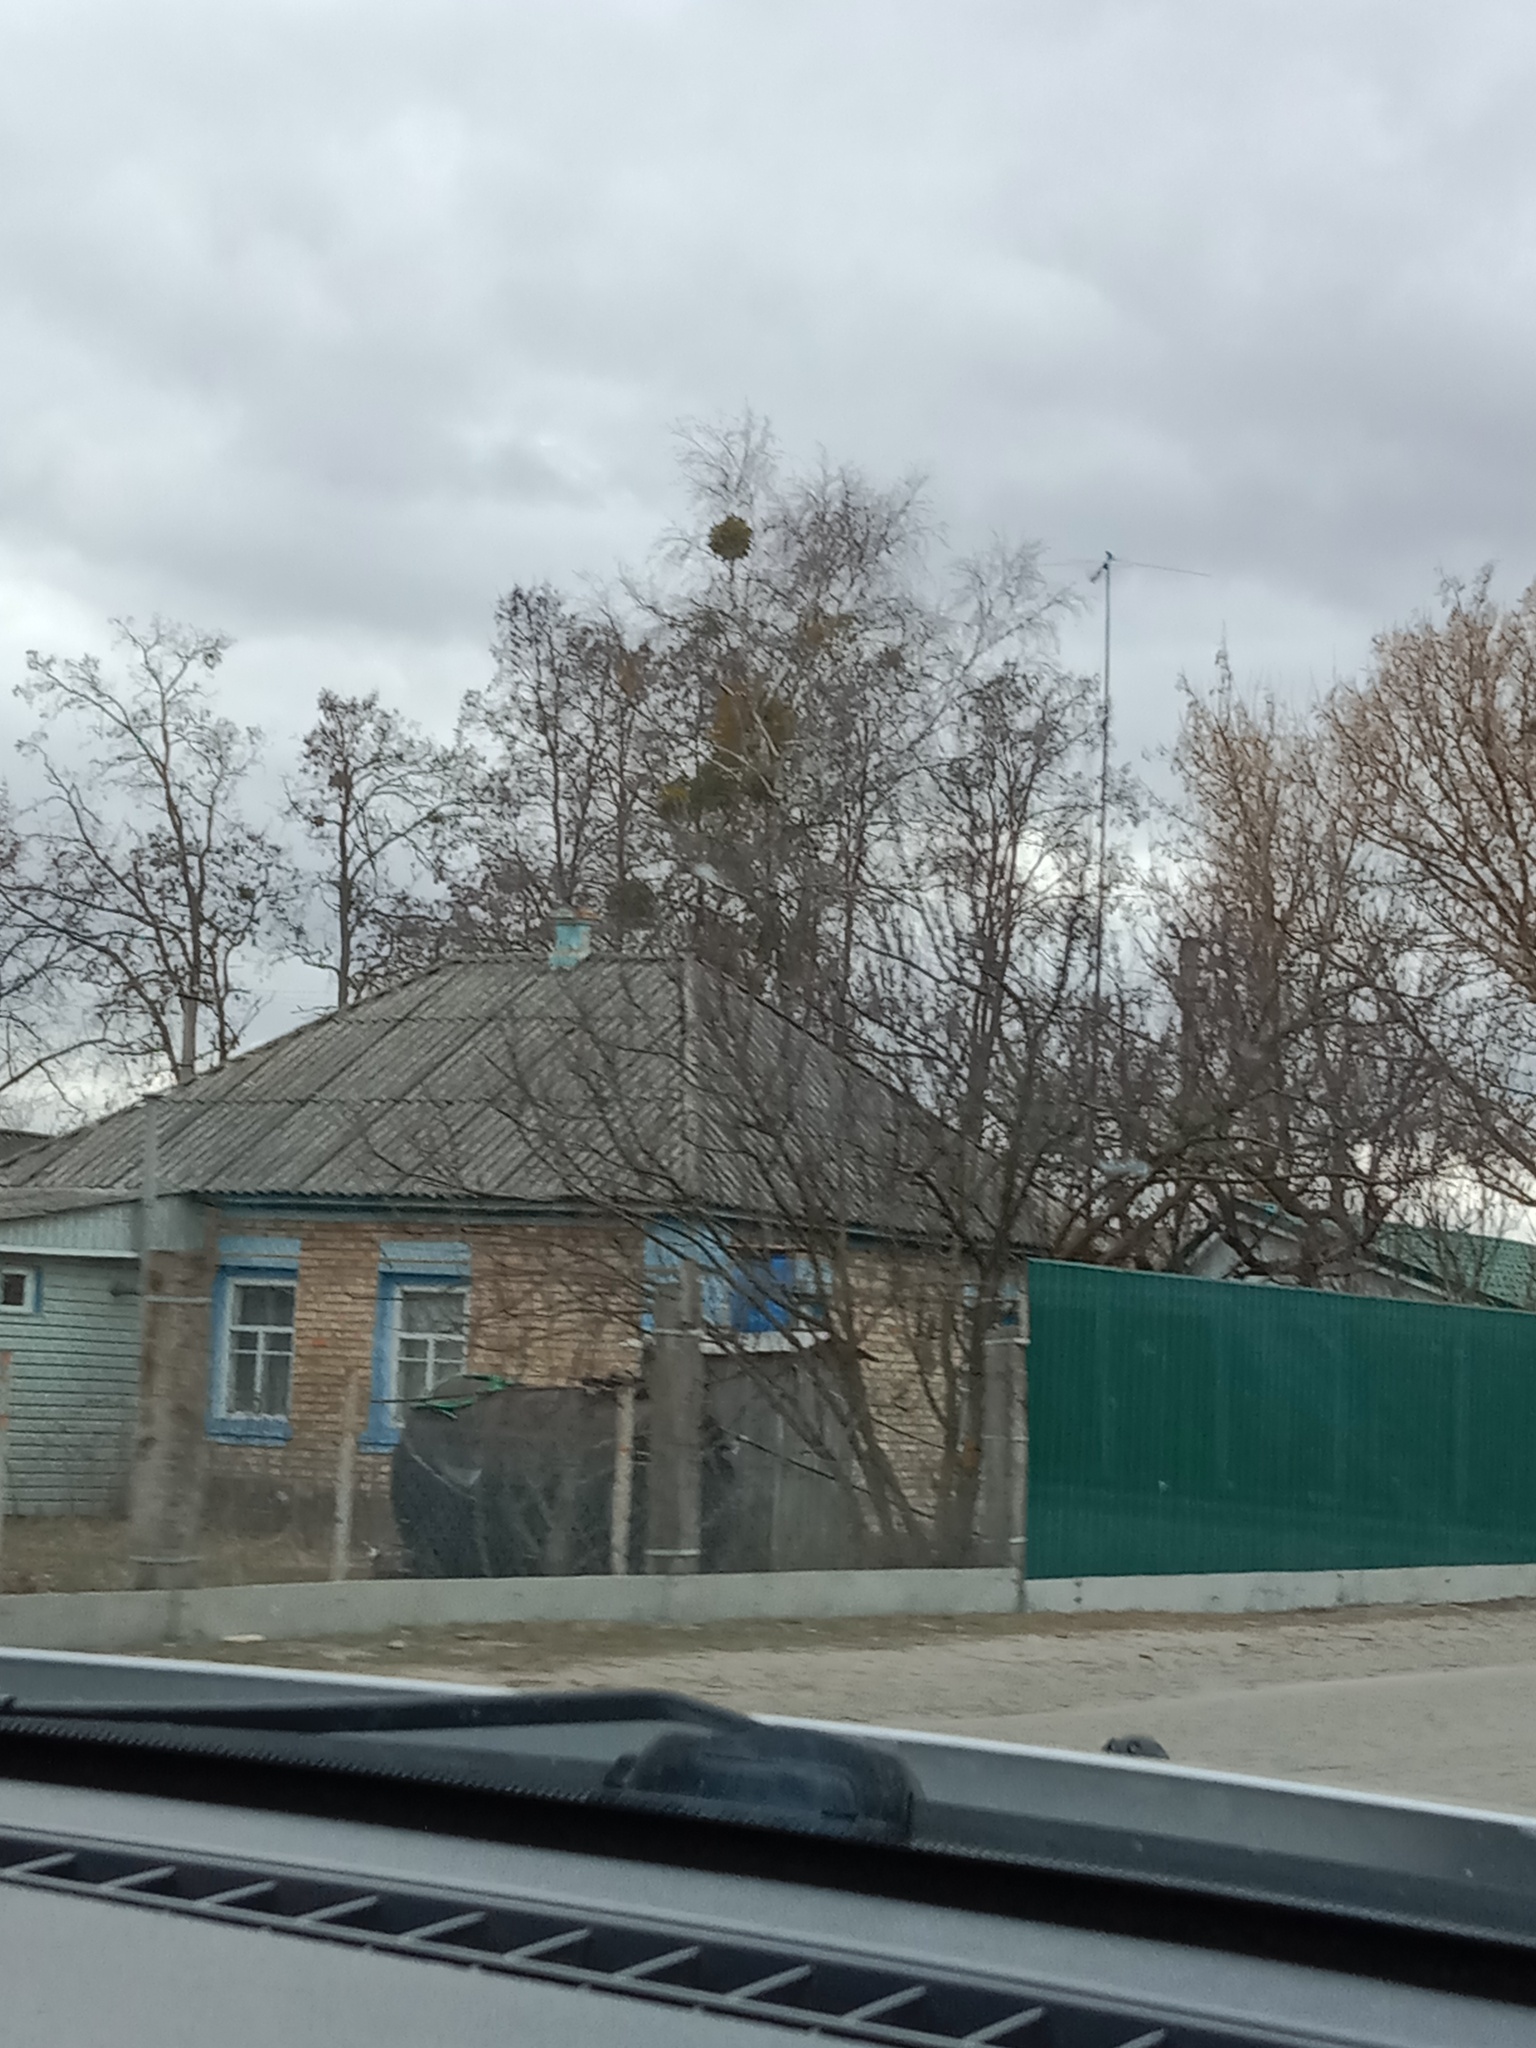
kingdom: Plantae
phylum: Tracheophyta
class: Magnoliopsida
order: Santalales
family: Viscaceae
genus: Viscum
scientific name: Viscum album
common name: Mistletoe
